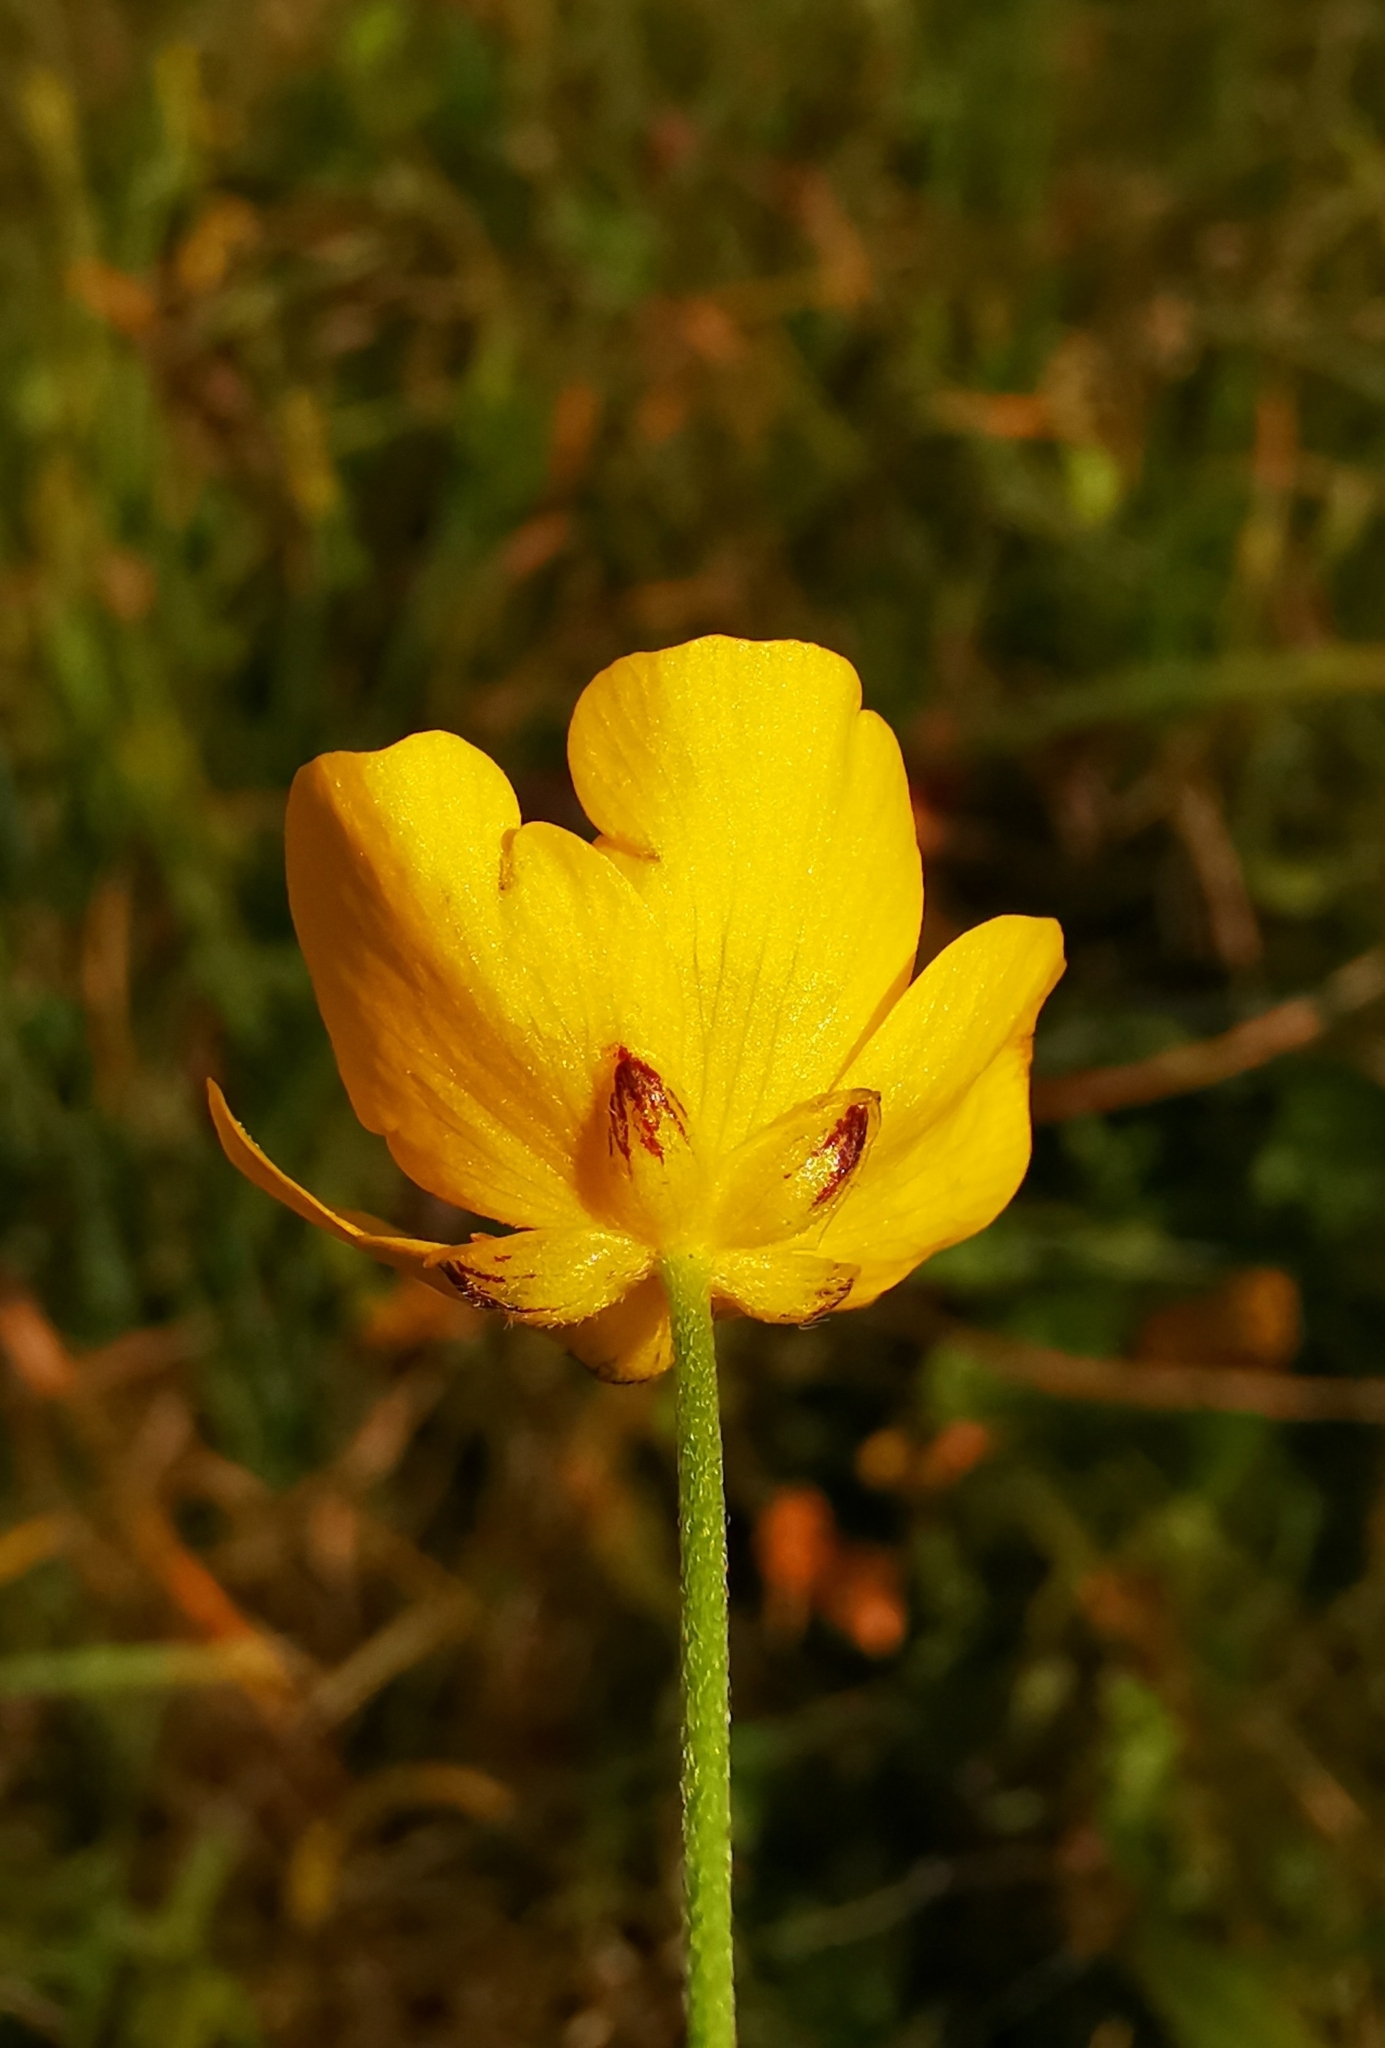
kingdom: Plantae
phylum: Tracheophyta
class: Magnoliopsida
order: Ranunculales
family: Ranunculaceae
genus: Ranunculus
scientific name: Ranunculus acris
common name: Meadow buttercup
